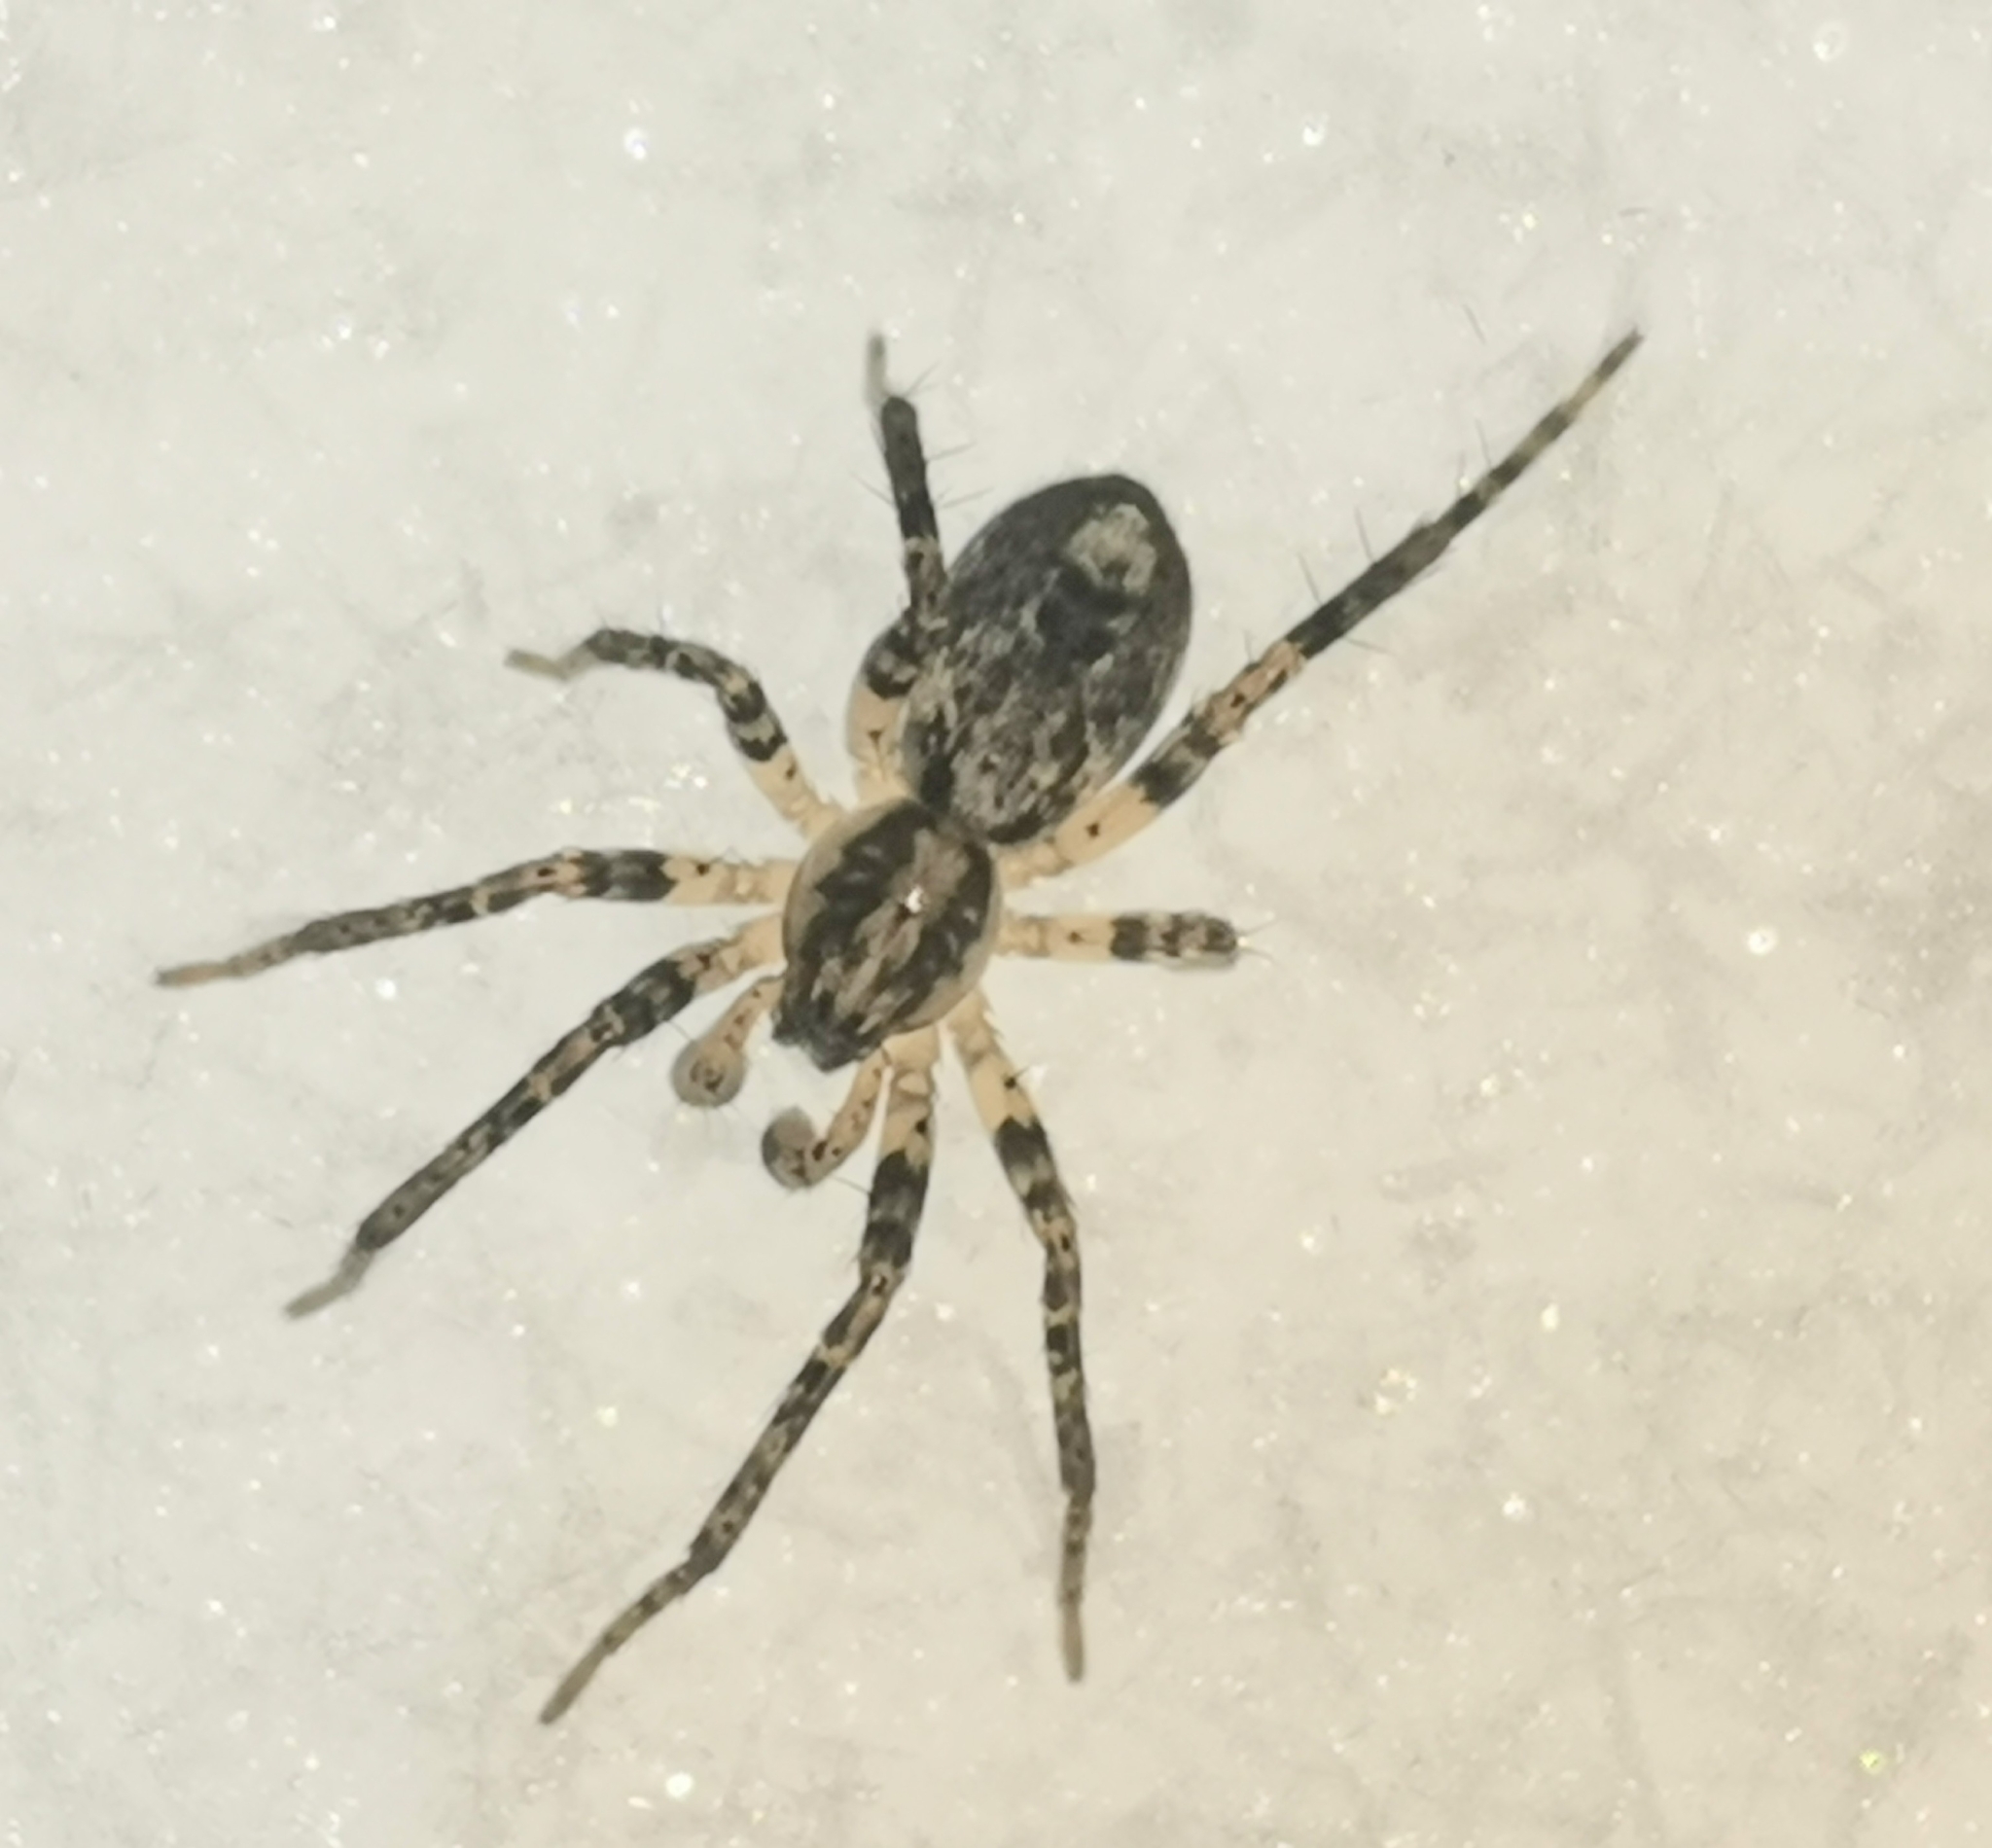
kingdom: Animalia
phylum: Arthropoda
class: Arachnida
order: Araneae
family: Anyphaenidae
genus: Anyphaena
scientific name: Anyphaena accentuata
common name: Buzzing spider
